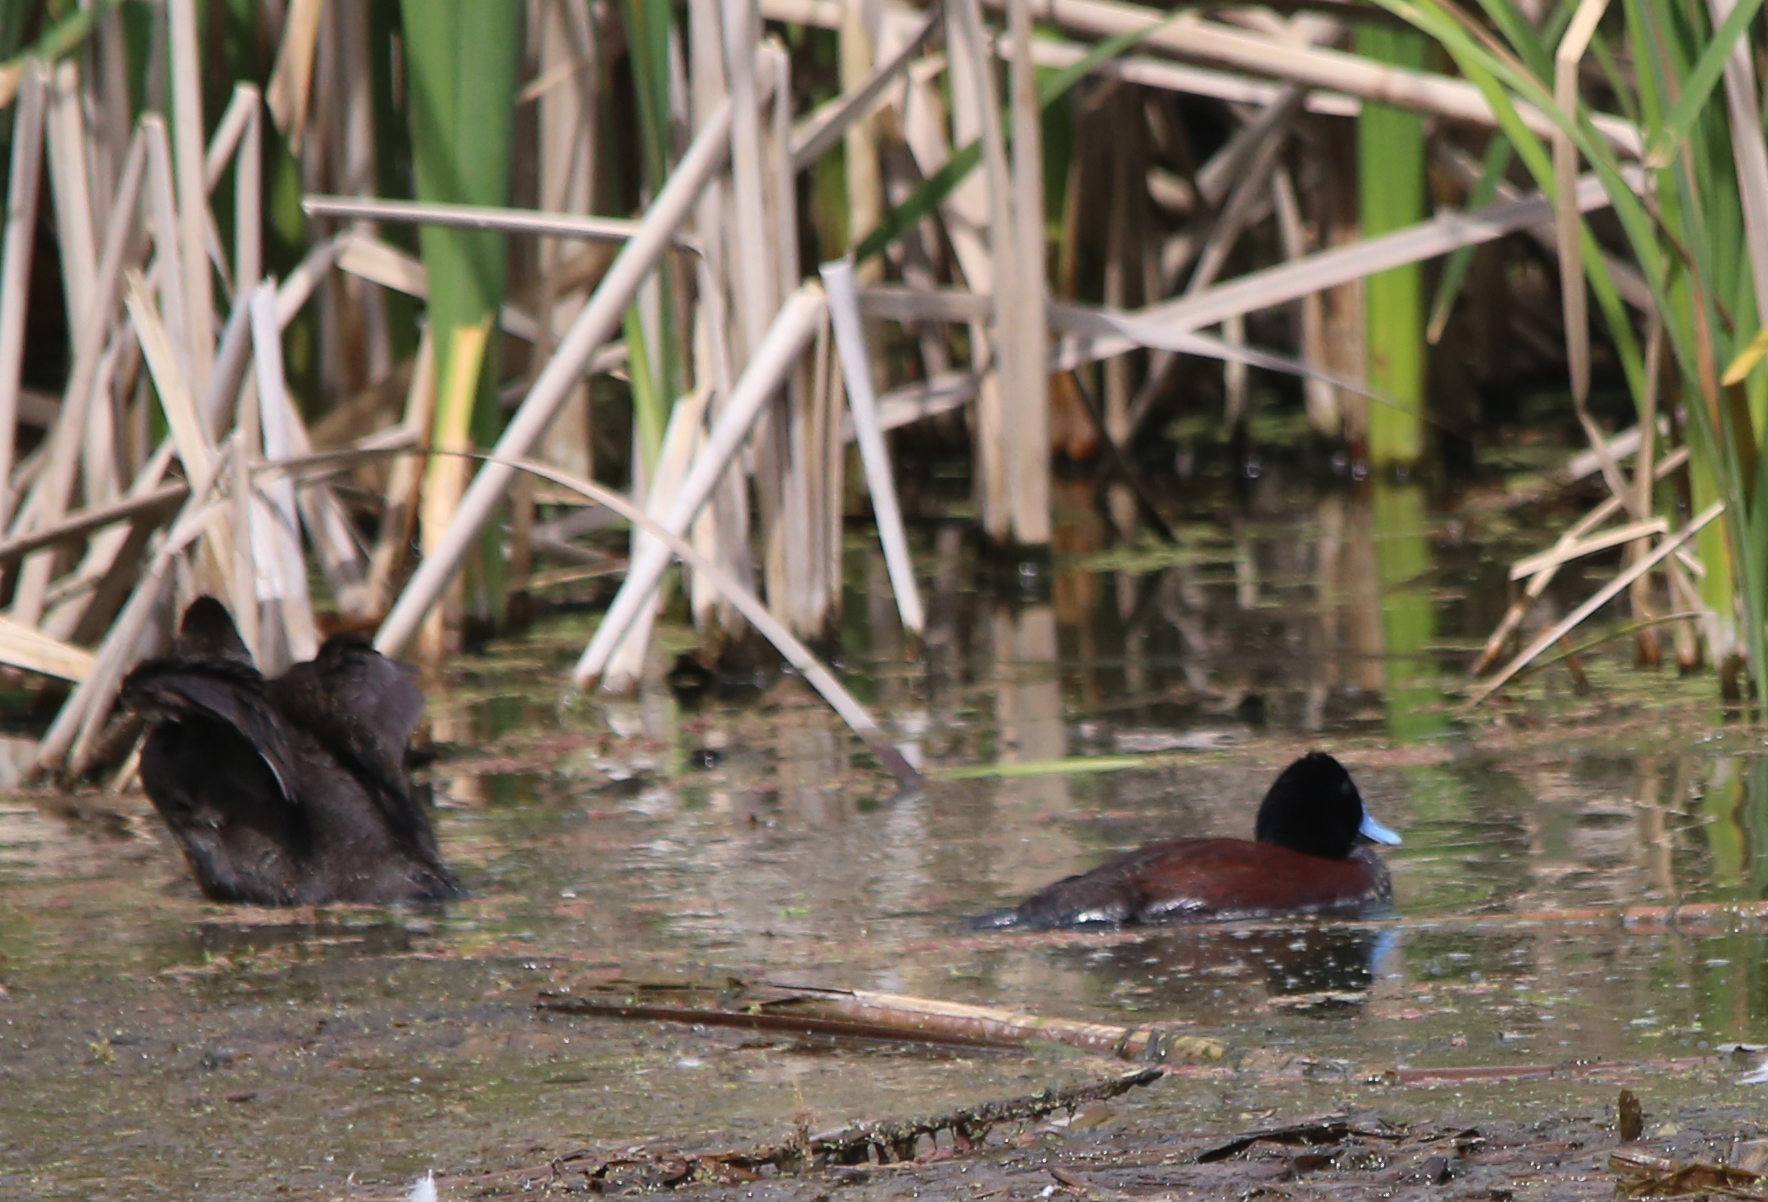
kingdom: Animalia
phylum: Chordata
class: Aves
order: Anseriformes
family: Anatidae
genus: Oxyura
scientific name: Oxyura australis
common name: Blue-billed duck
